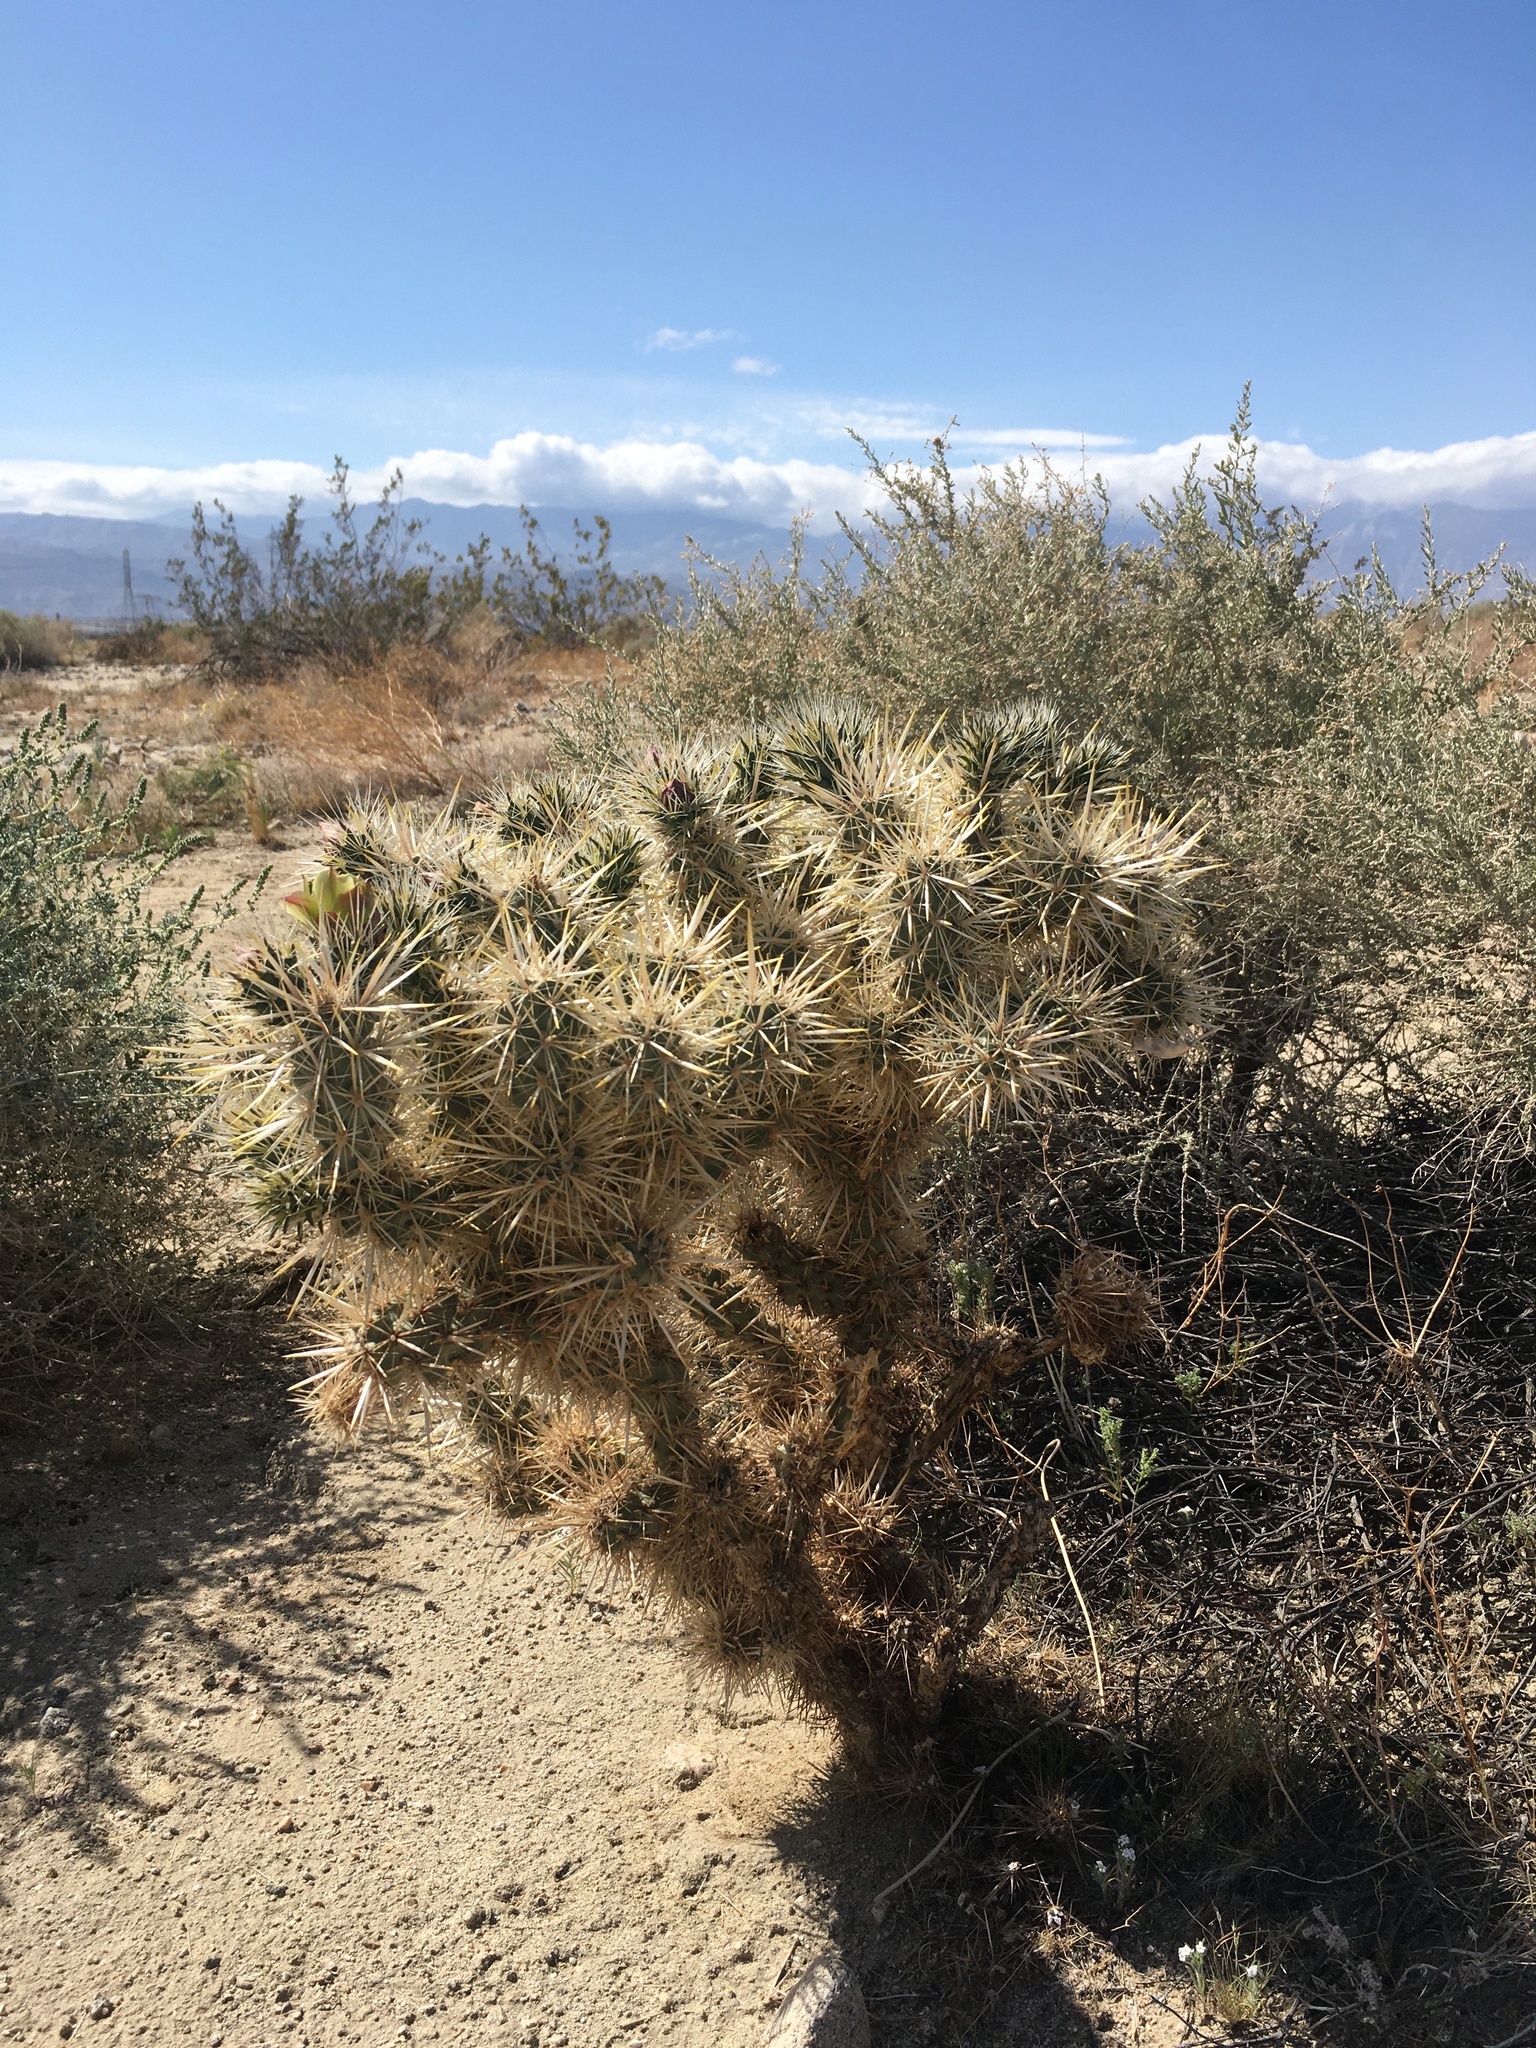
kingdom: Plantae
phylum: Tracheophyta
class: Magnoliopsida
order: Caryophyllales
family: Cactaceae
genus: Cylindropuntia
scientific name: Cylindropuntia echinocarpa
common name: Ground cholla
